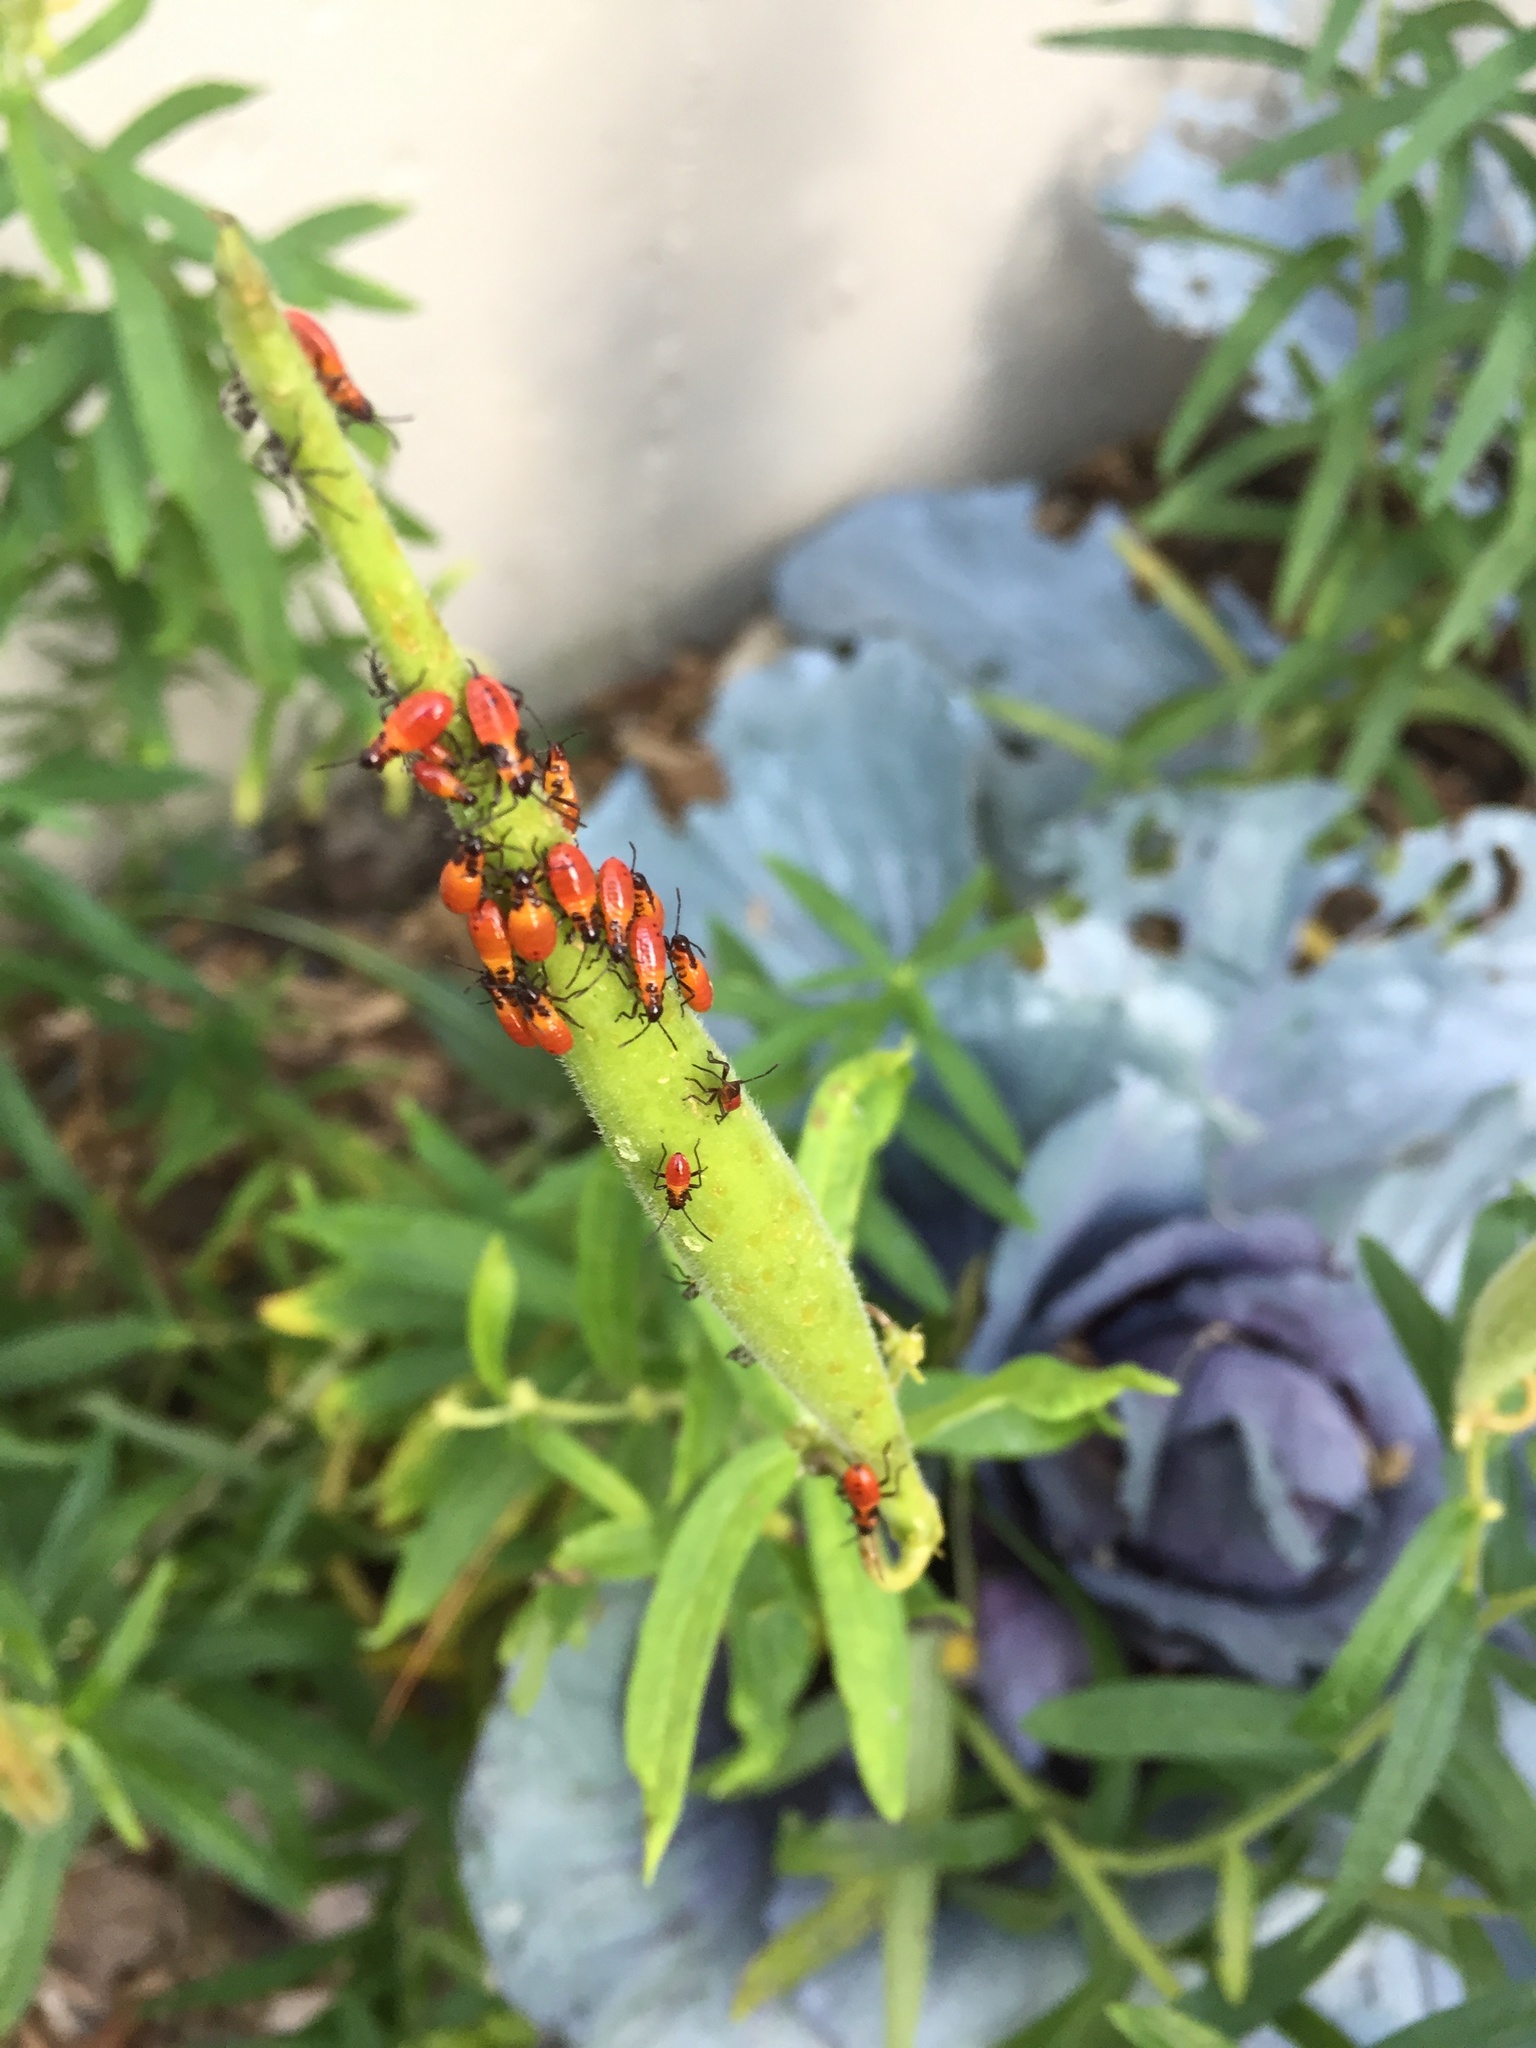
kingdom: Animalia
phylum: Arthropoda
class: Insecta
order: Hemiptera
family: Lygaeidae
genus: Oncopeltus
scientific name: Oncopeltus fasciatus
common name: Large milkweed bug
